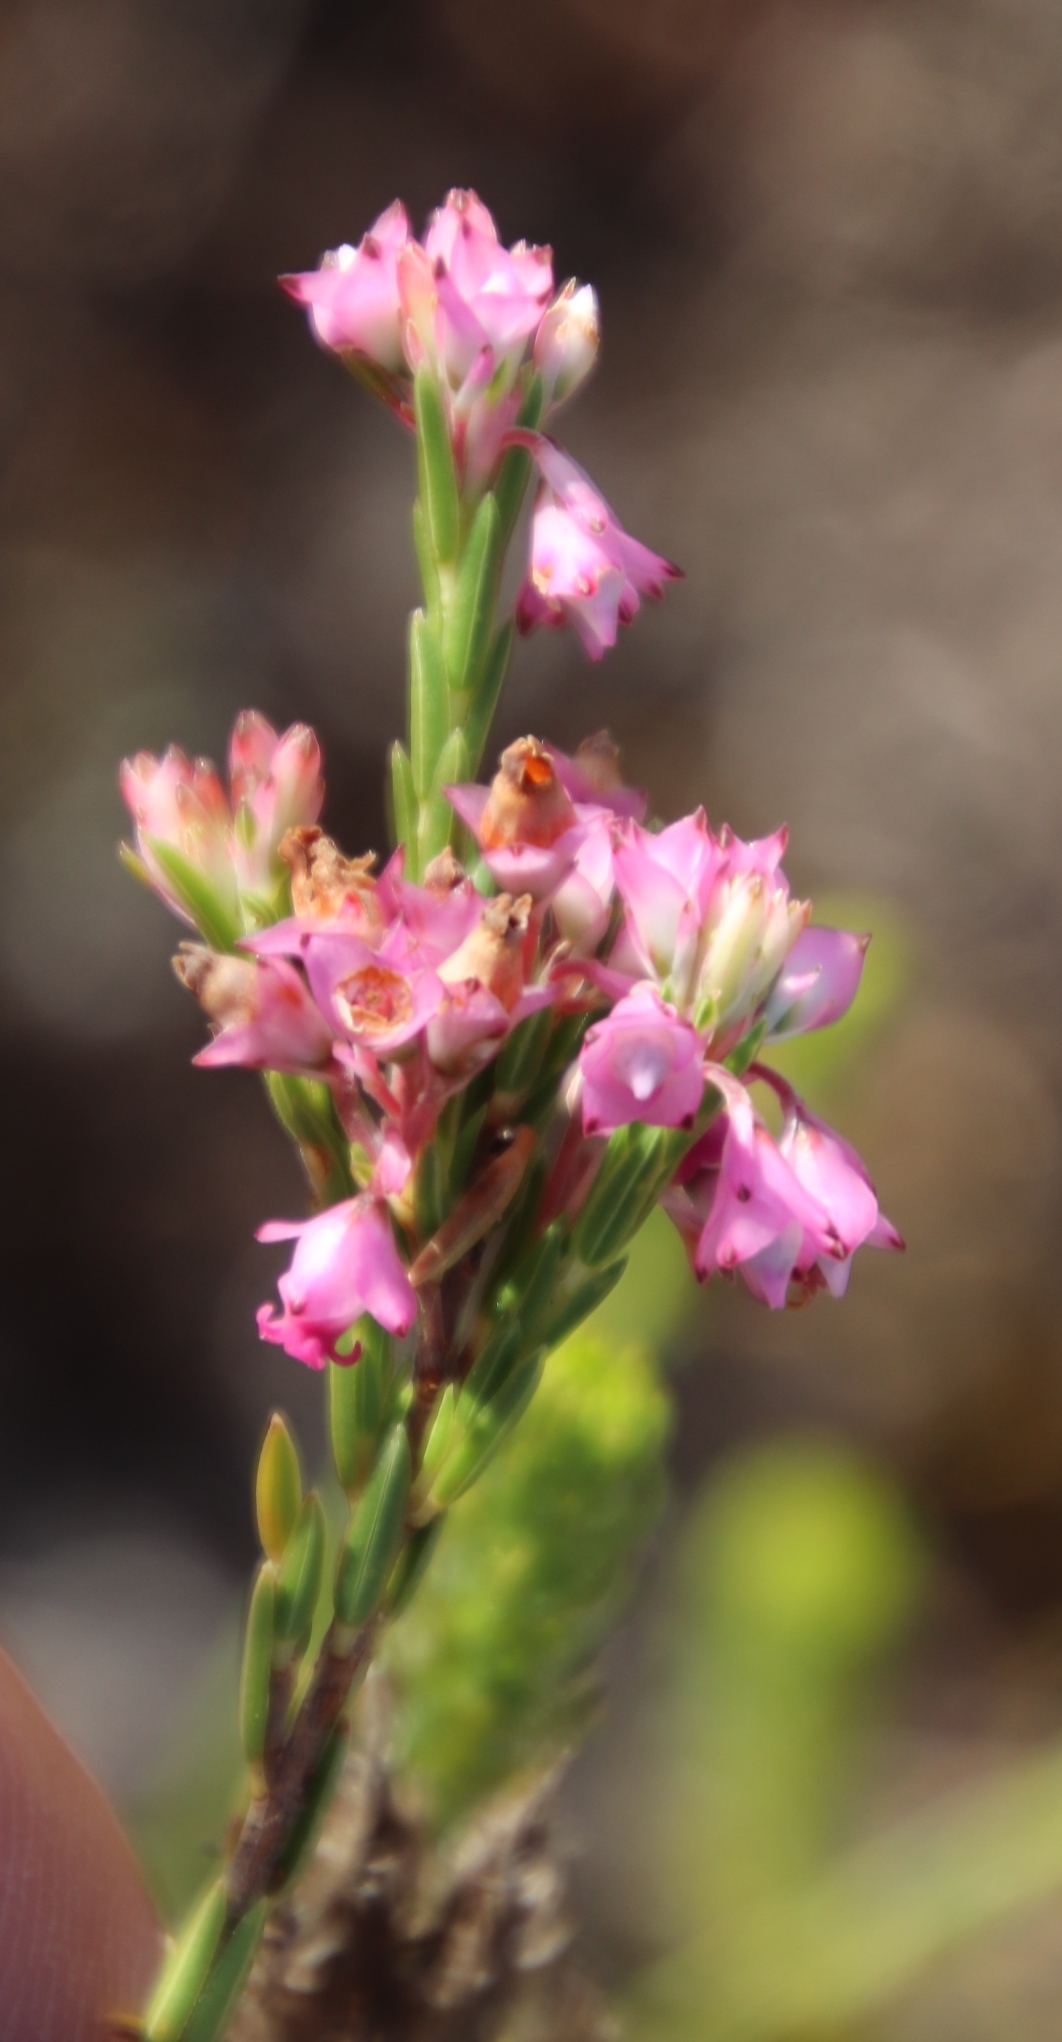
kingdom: Plantae
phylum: Tracheophyta
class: Magnoliopsida
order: Ericales
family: Ericaceae
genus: Erica
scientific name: Erica corifolia
